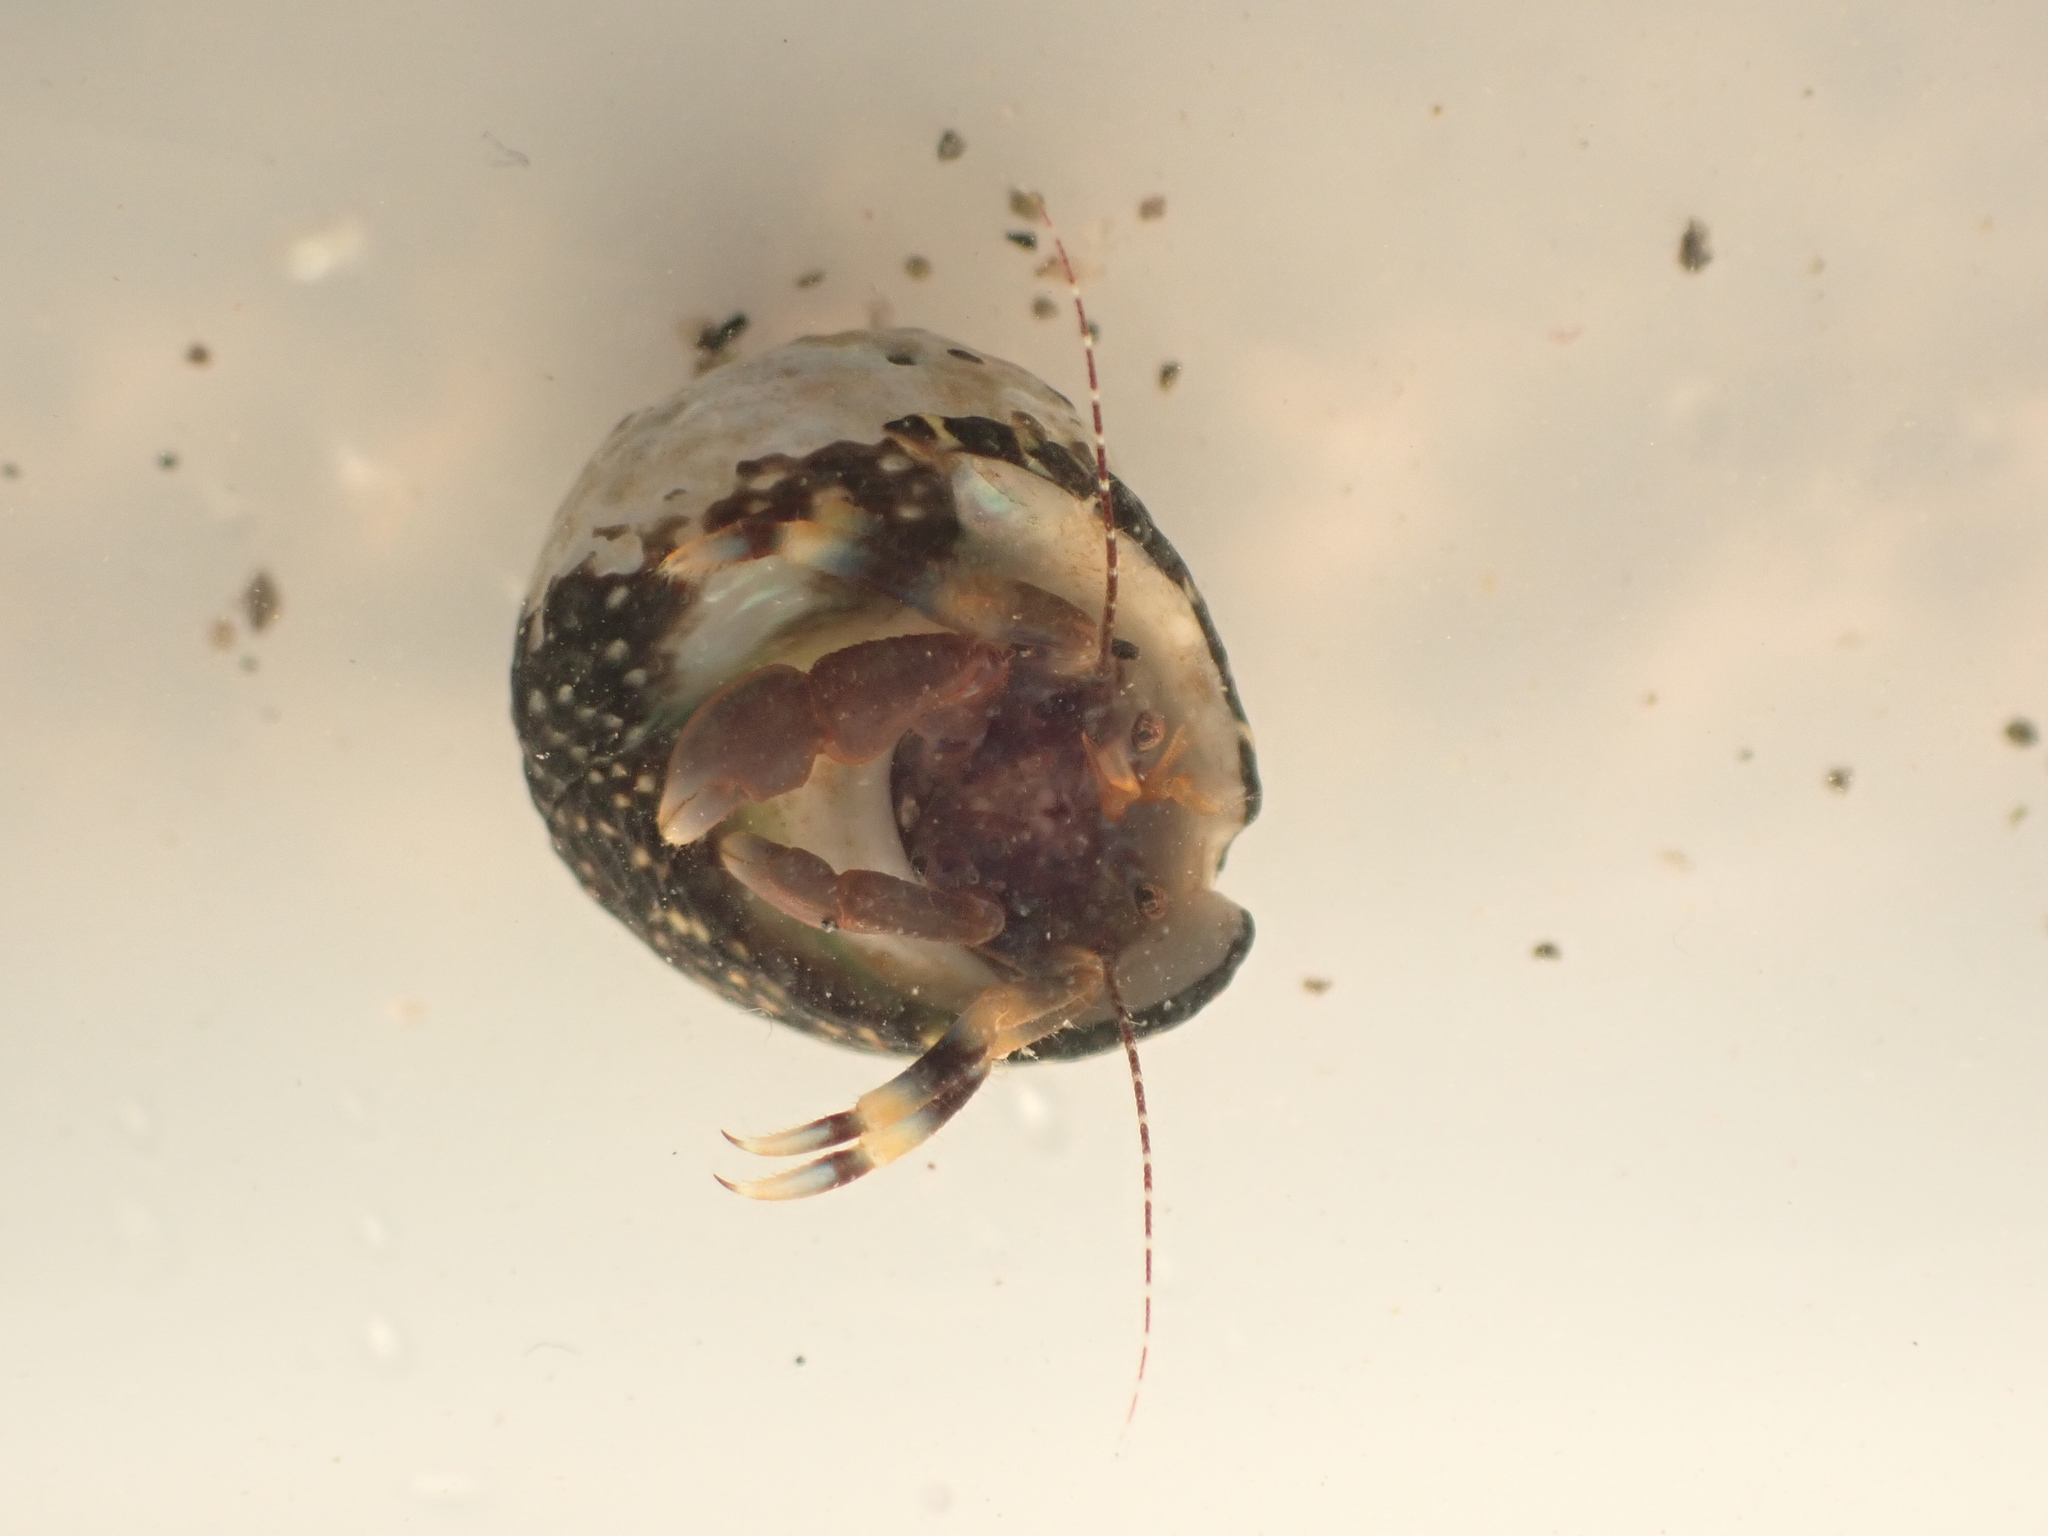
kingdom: Animalia
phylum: Arthropoda
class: Malacostraca
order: Decapoda
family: Paguridae
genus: Pagurixus
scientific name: Pagurixus hectori
